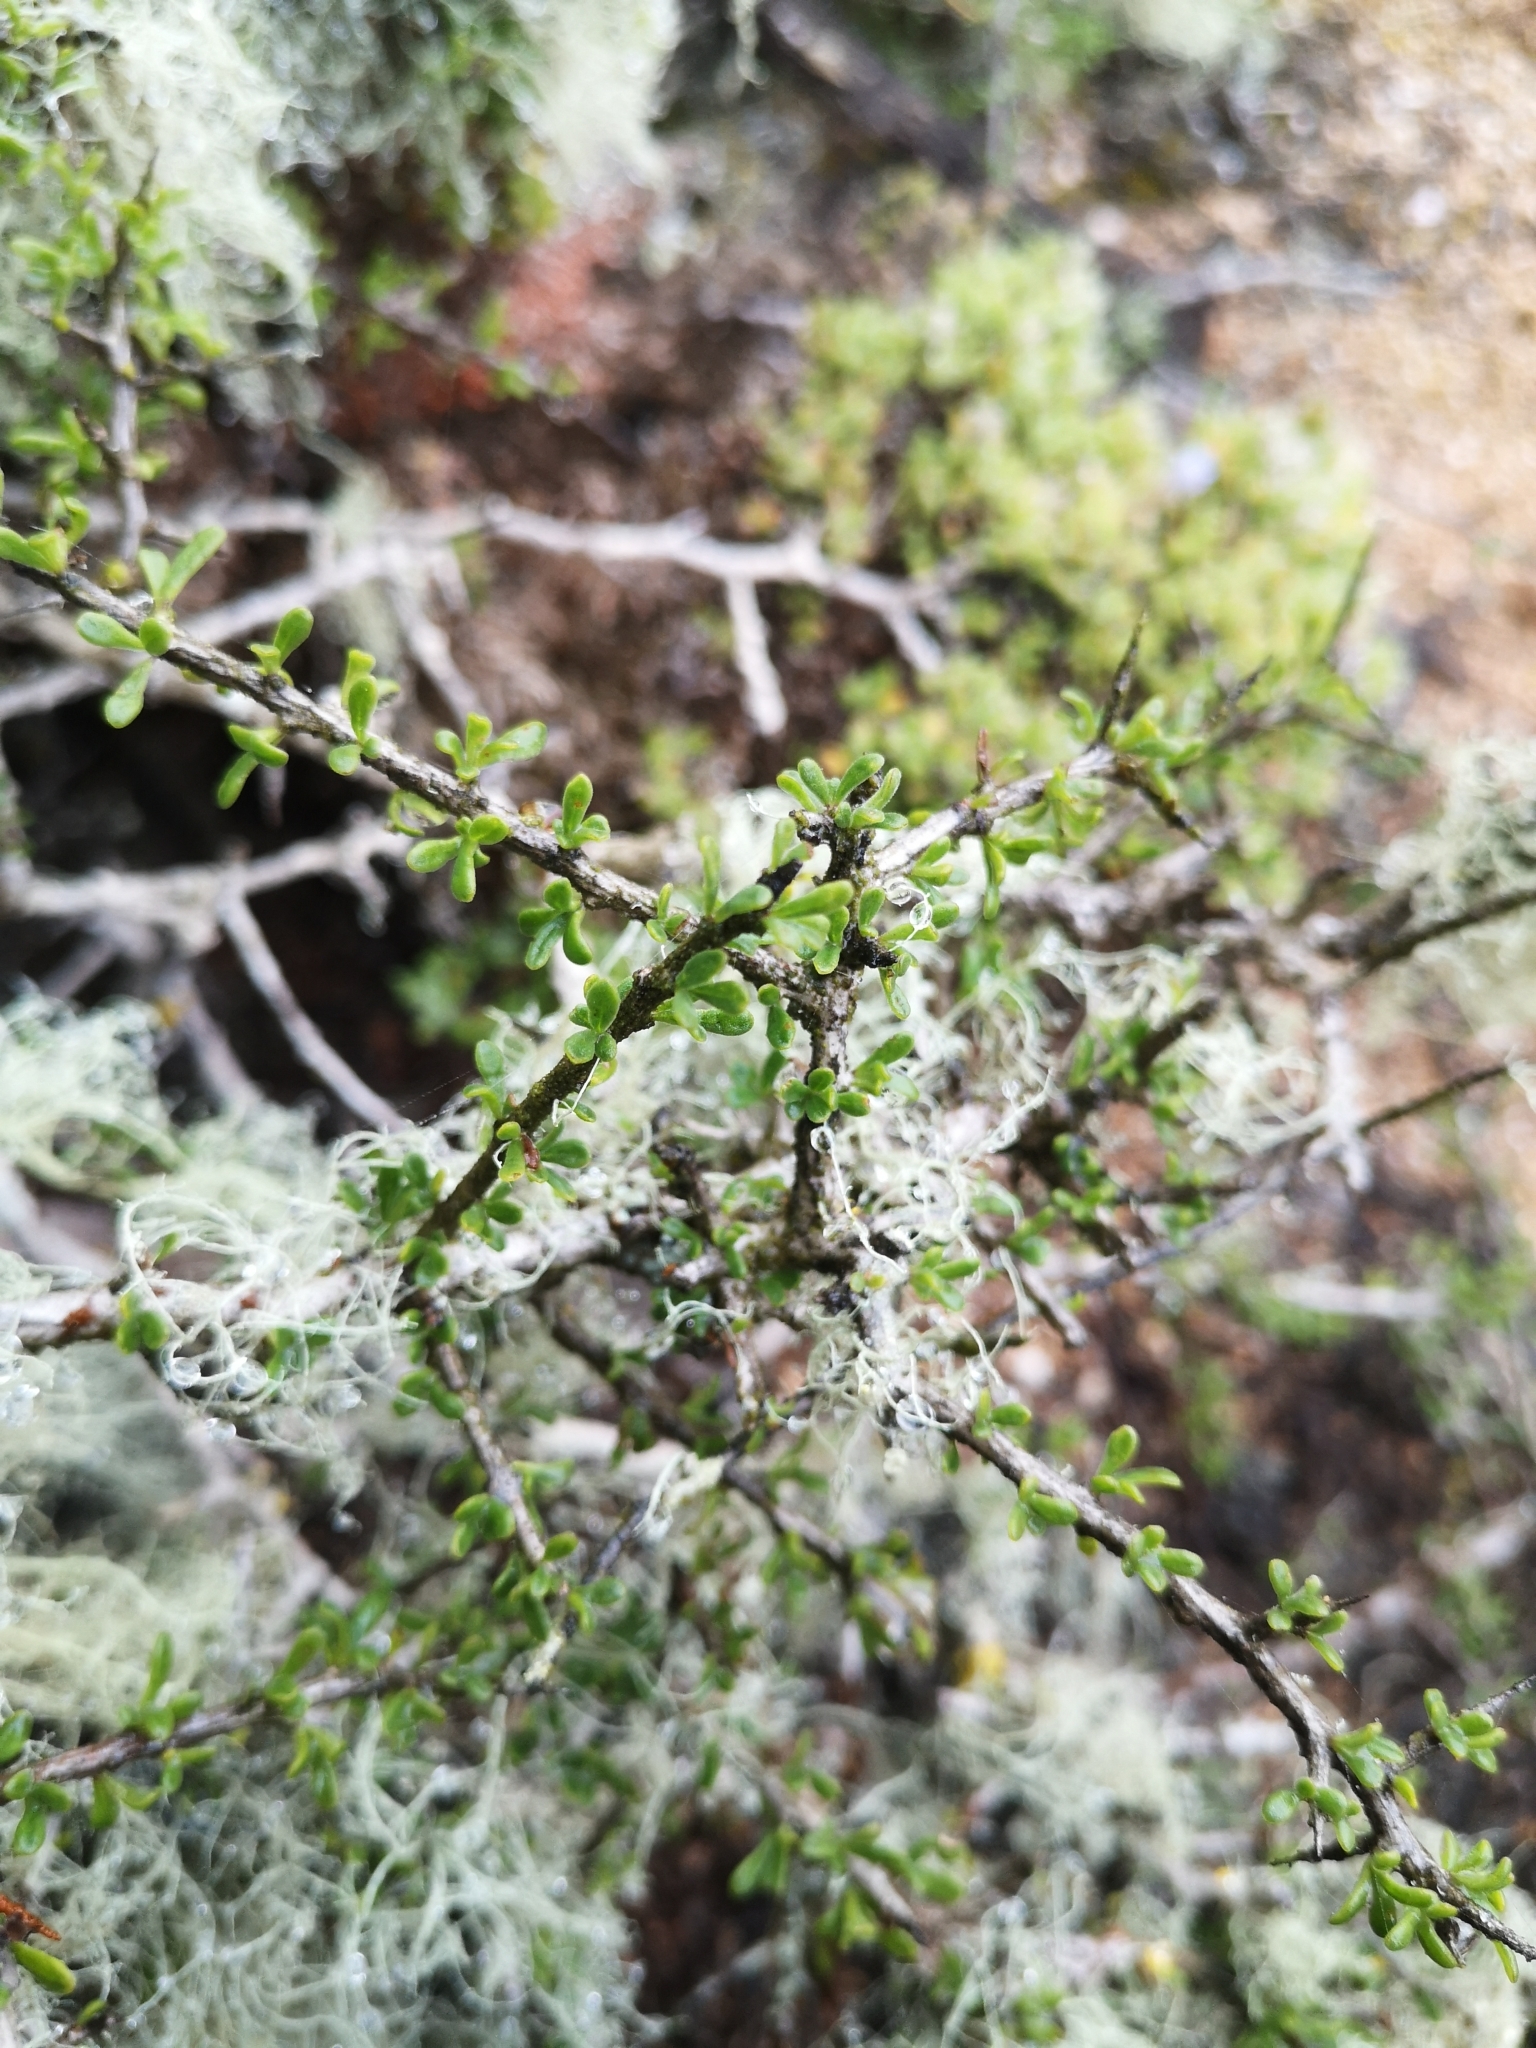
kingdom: Plantae
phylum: Tracheophyta
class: Magnoliopsida
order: Solanales
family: Solanaceae
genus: Lycium
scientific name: Lycium leiostemum
